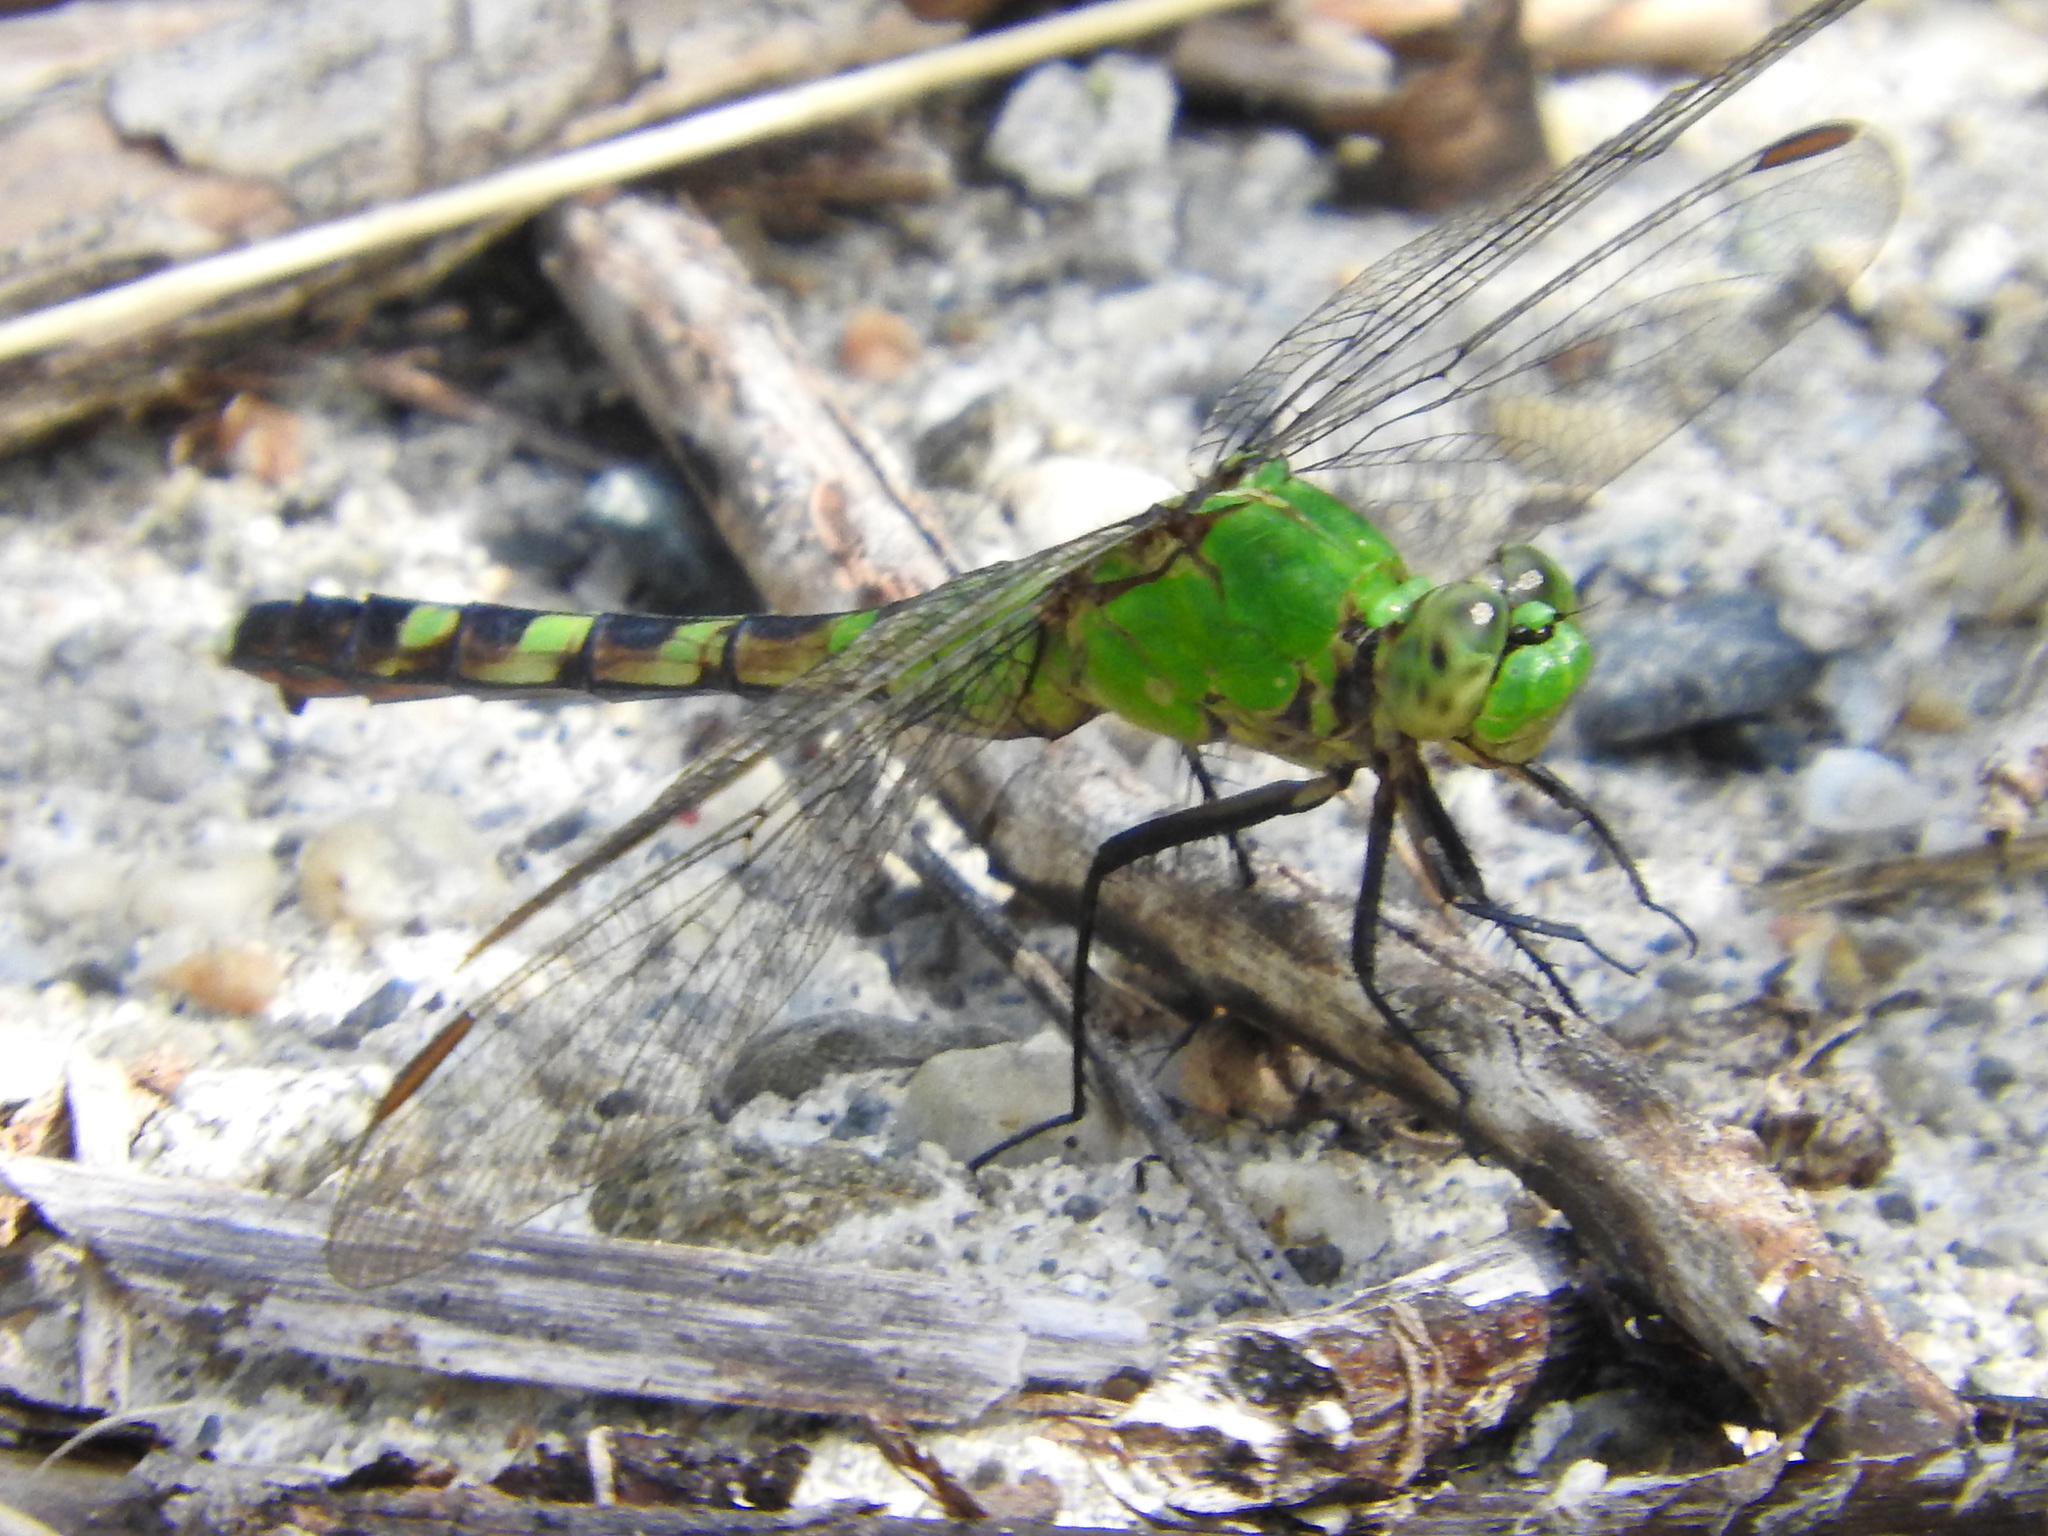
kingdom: Animalia
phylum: Arthropoda
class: Insecta
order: Odonata
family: Libellulidae
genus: Erythemis
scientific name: Erythemis simplicicollis
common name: Eastern pondhawk
